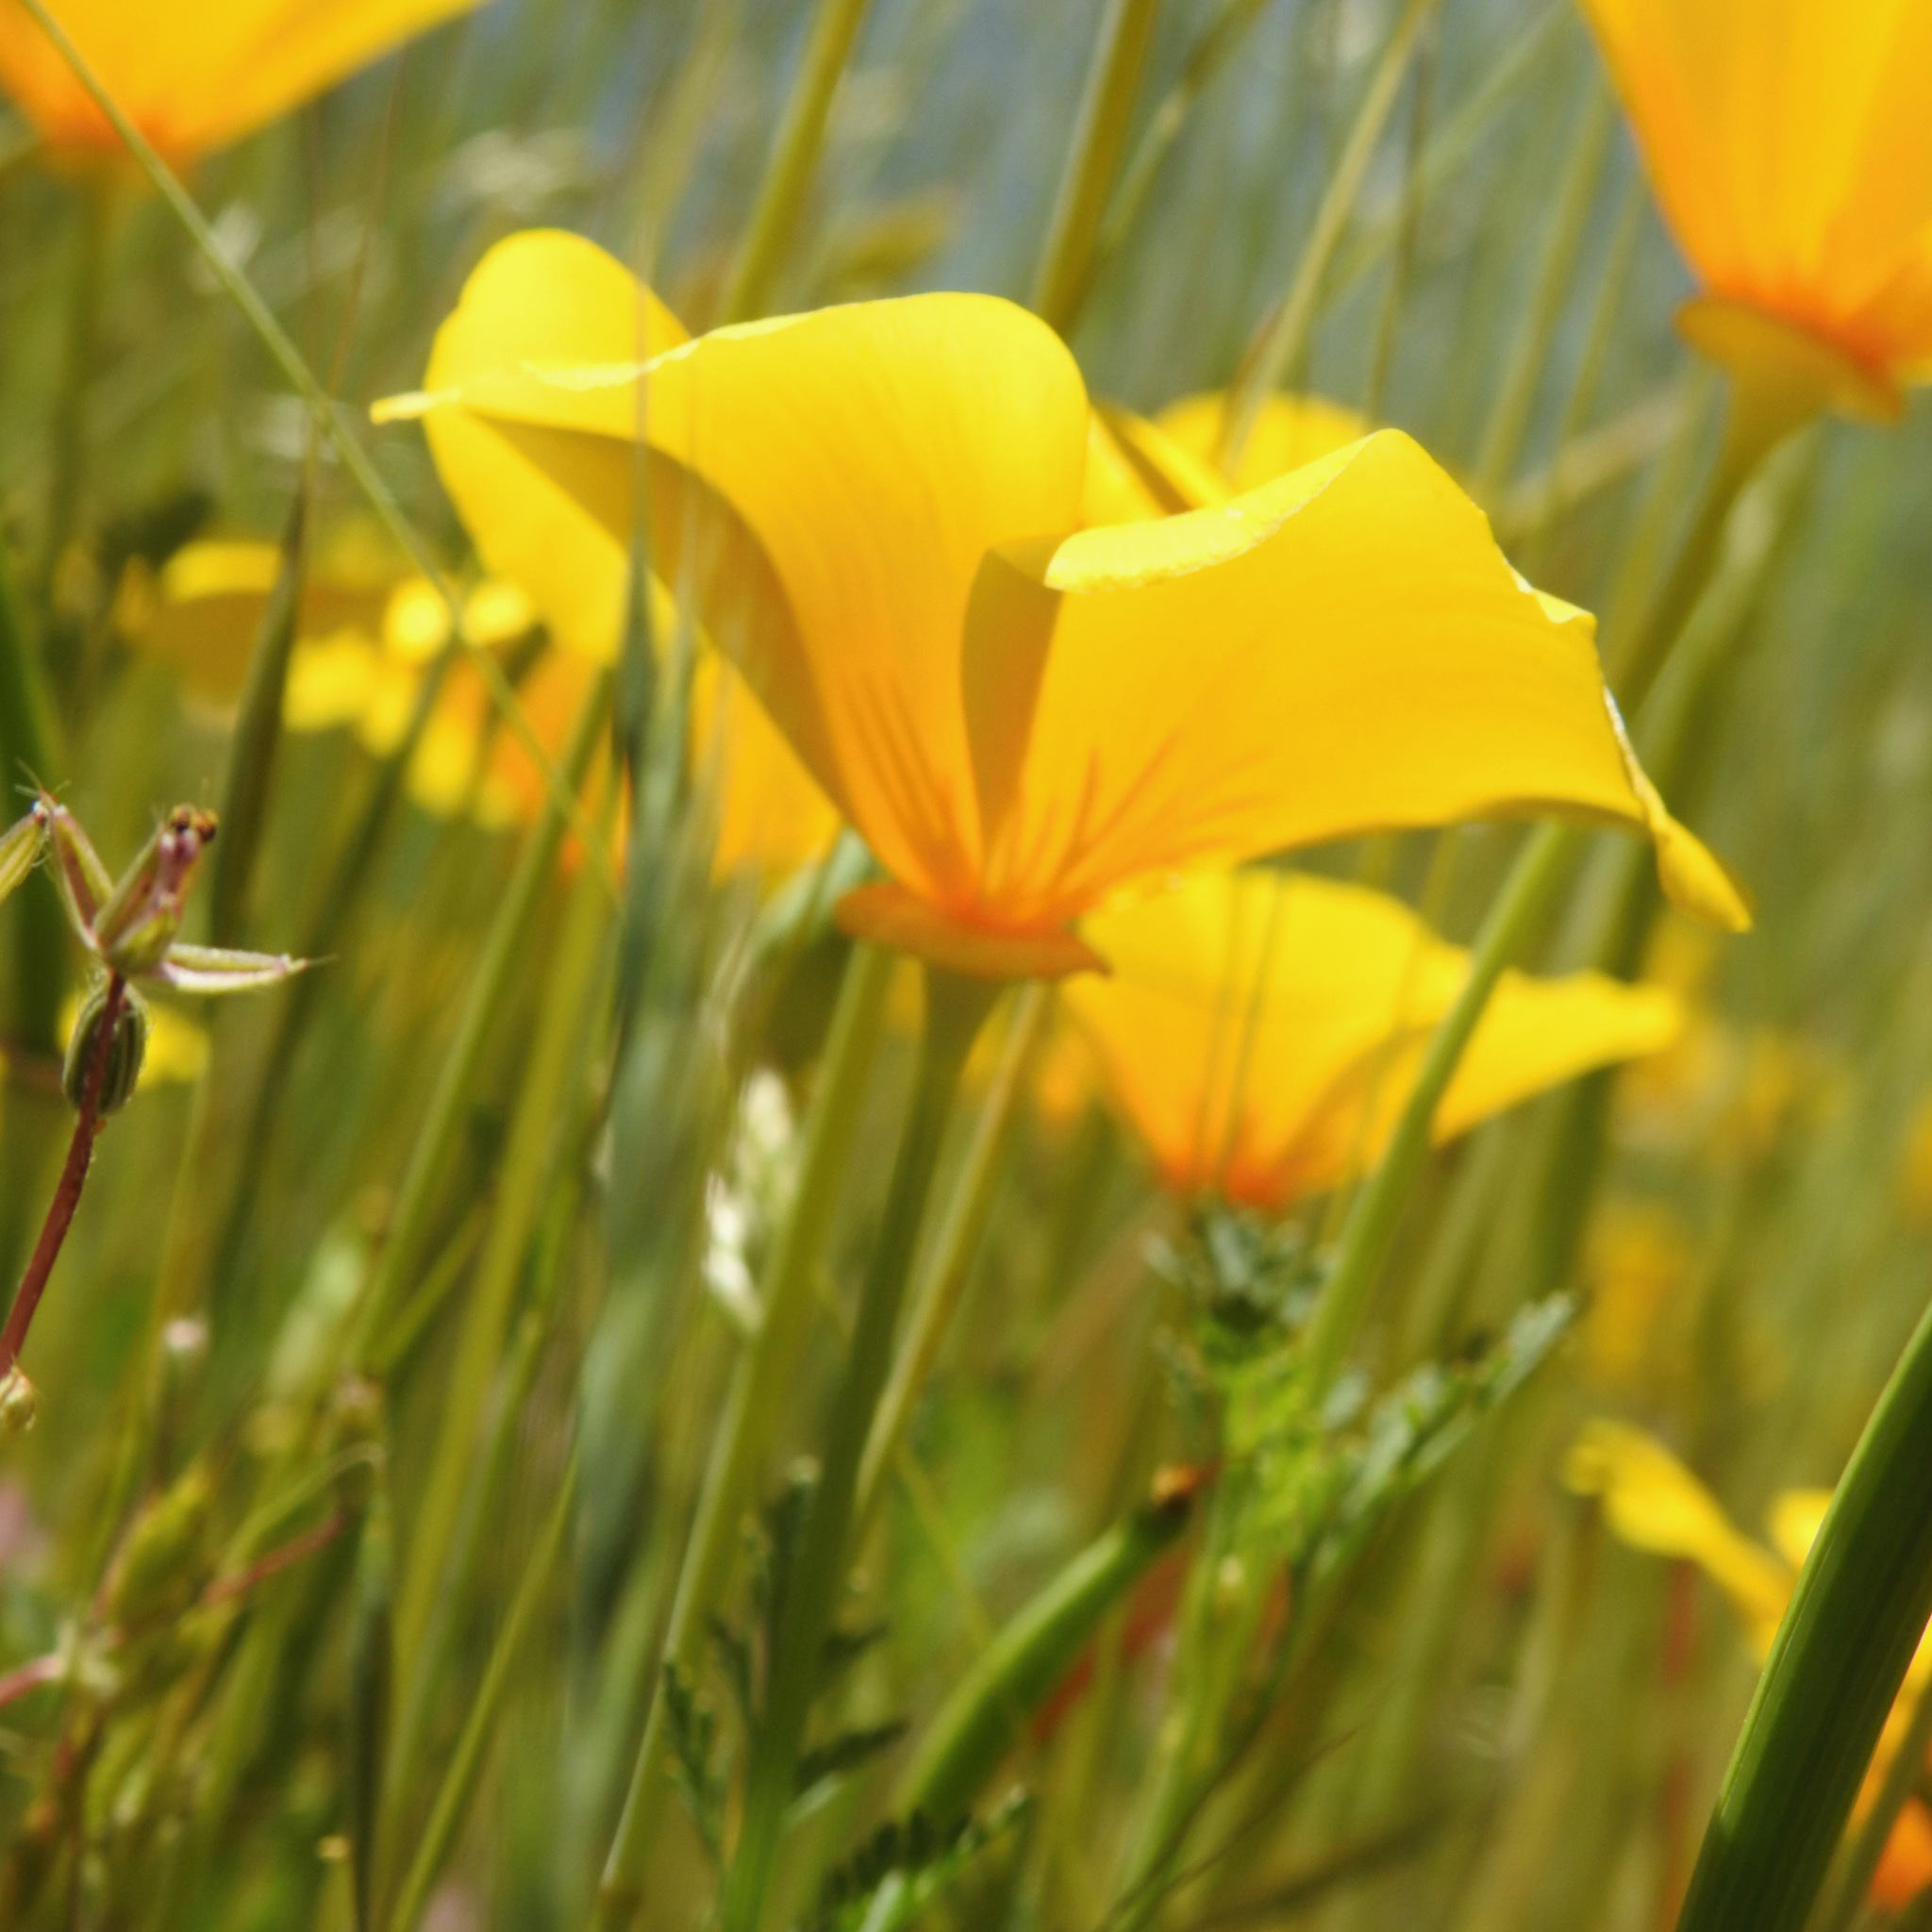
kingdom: Plantae
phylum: Tracheophyta
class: Magnoliopsida
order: Ranunculales
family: Papaveraceae
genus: Eschscholzia
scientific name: Eschscholzia californica
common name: California poppy
